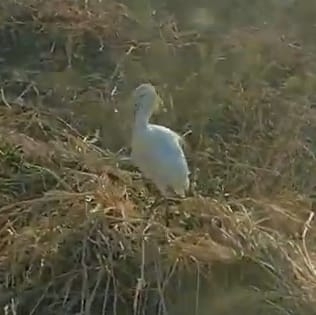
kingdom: Animalia
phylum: Chordata
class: Aves
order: Pelecaniformes
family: Ardeidae
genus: Bubulcus
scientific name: Bubulcus ibis
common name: Cattle egret
